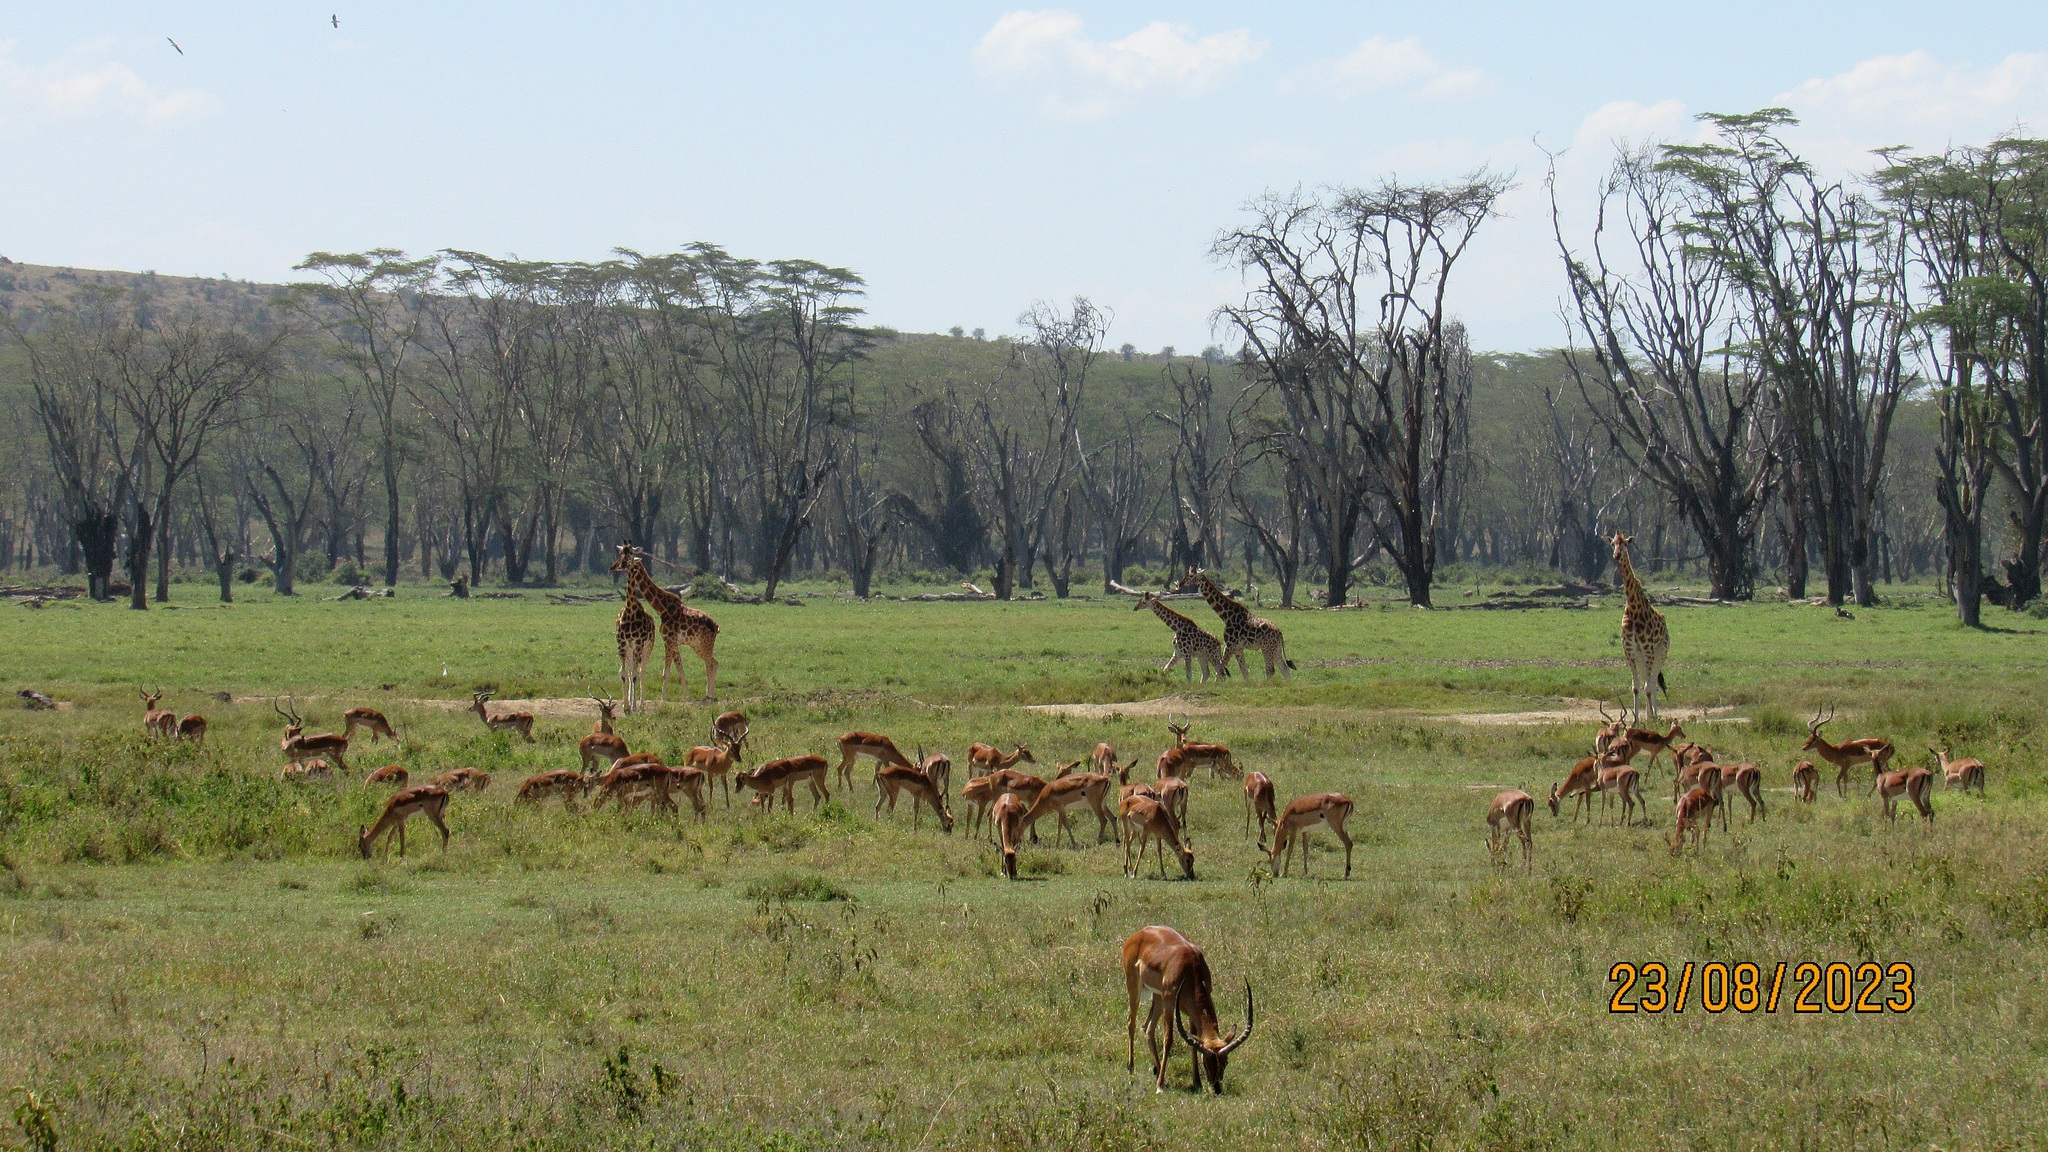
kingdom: Animalia
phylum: Chordata
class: Mammalia
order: Artiodactyla
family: Bovidae
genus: Aepyceros
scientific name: Aepyceros melampus
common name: Impala
